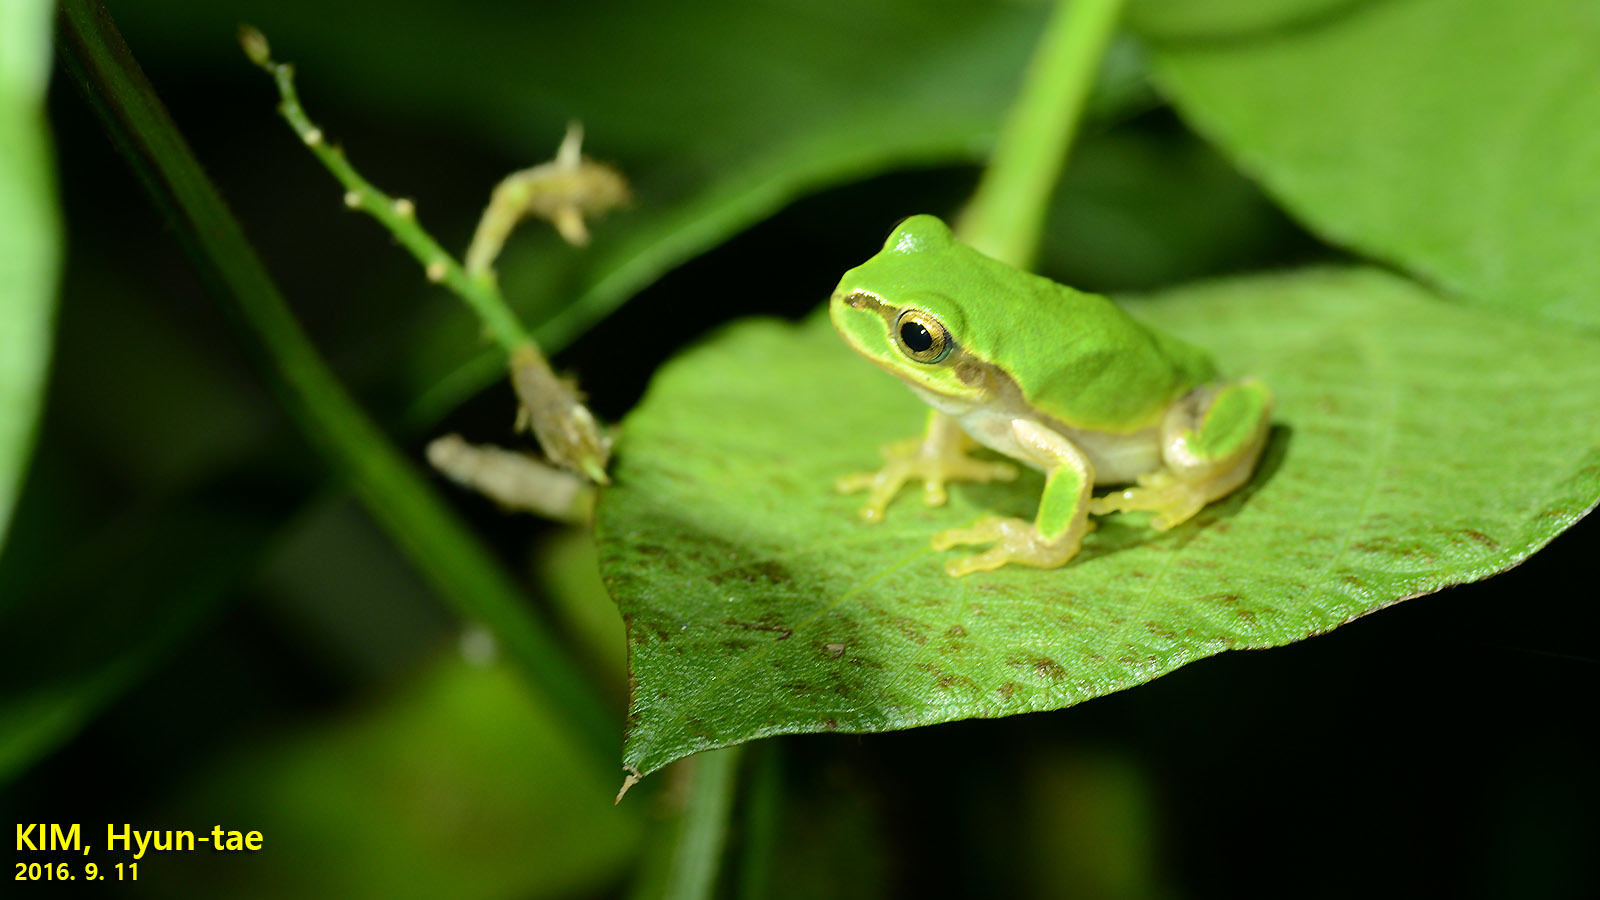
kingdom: Animalia
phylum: Chordata
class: Amphibia
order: Anura
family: Hylidae
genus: Dryophytes
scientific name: Dryophytes japonicus
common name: Japanese treefrog
